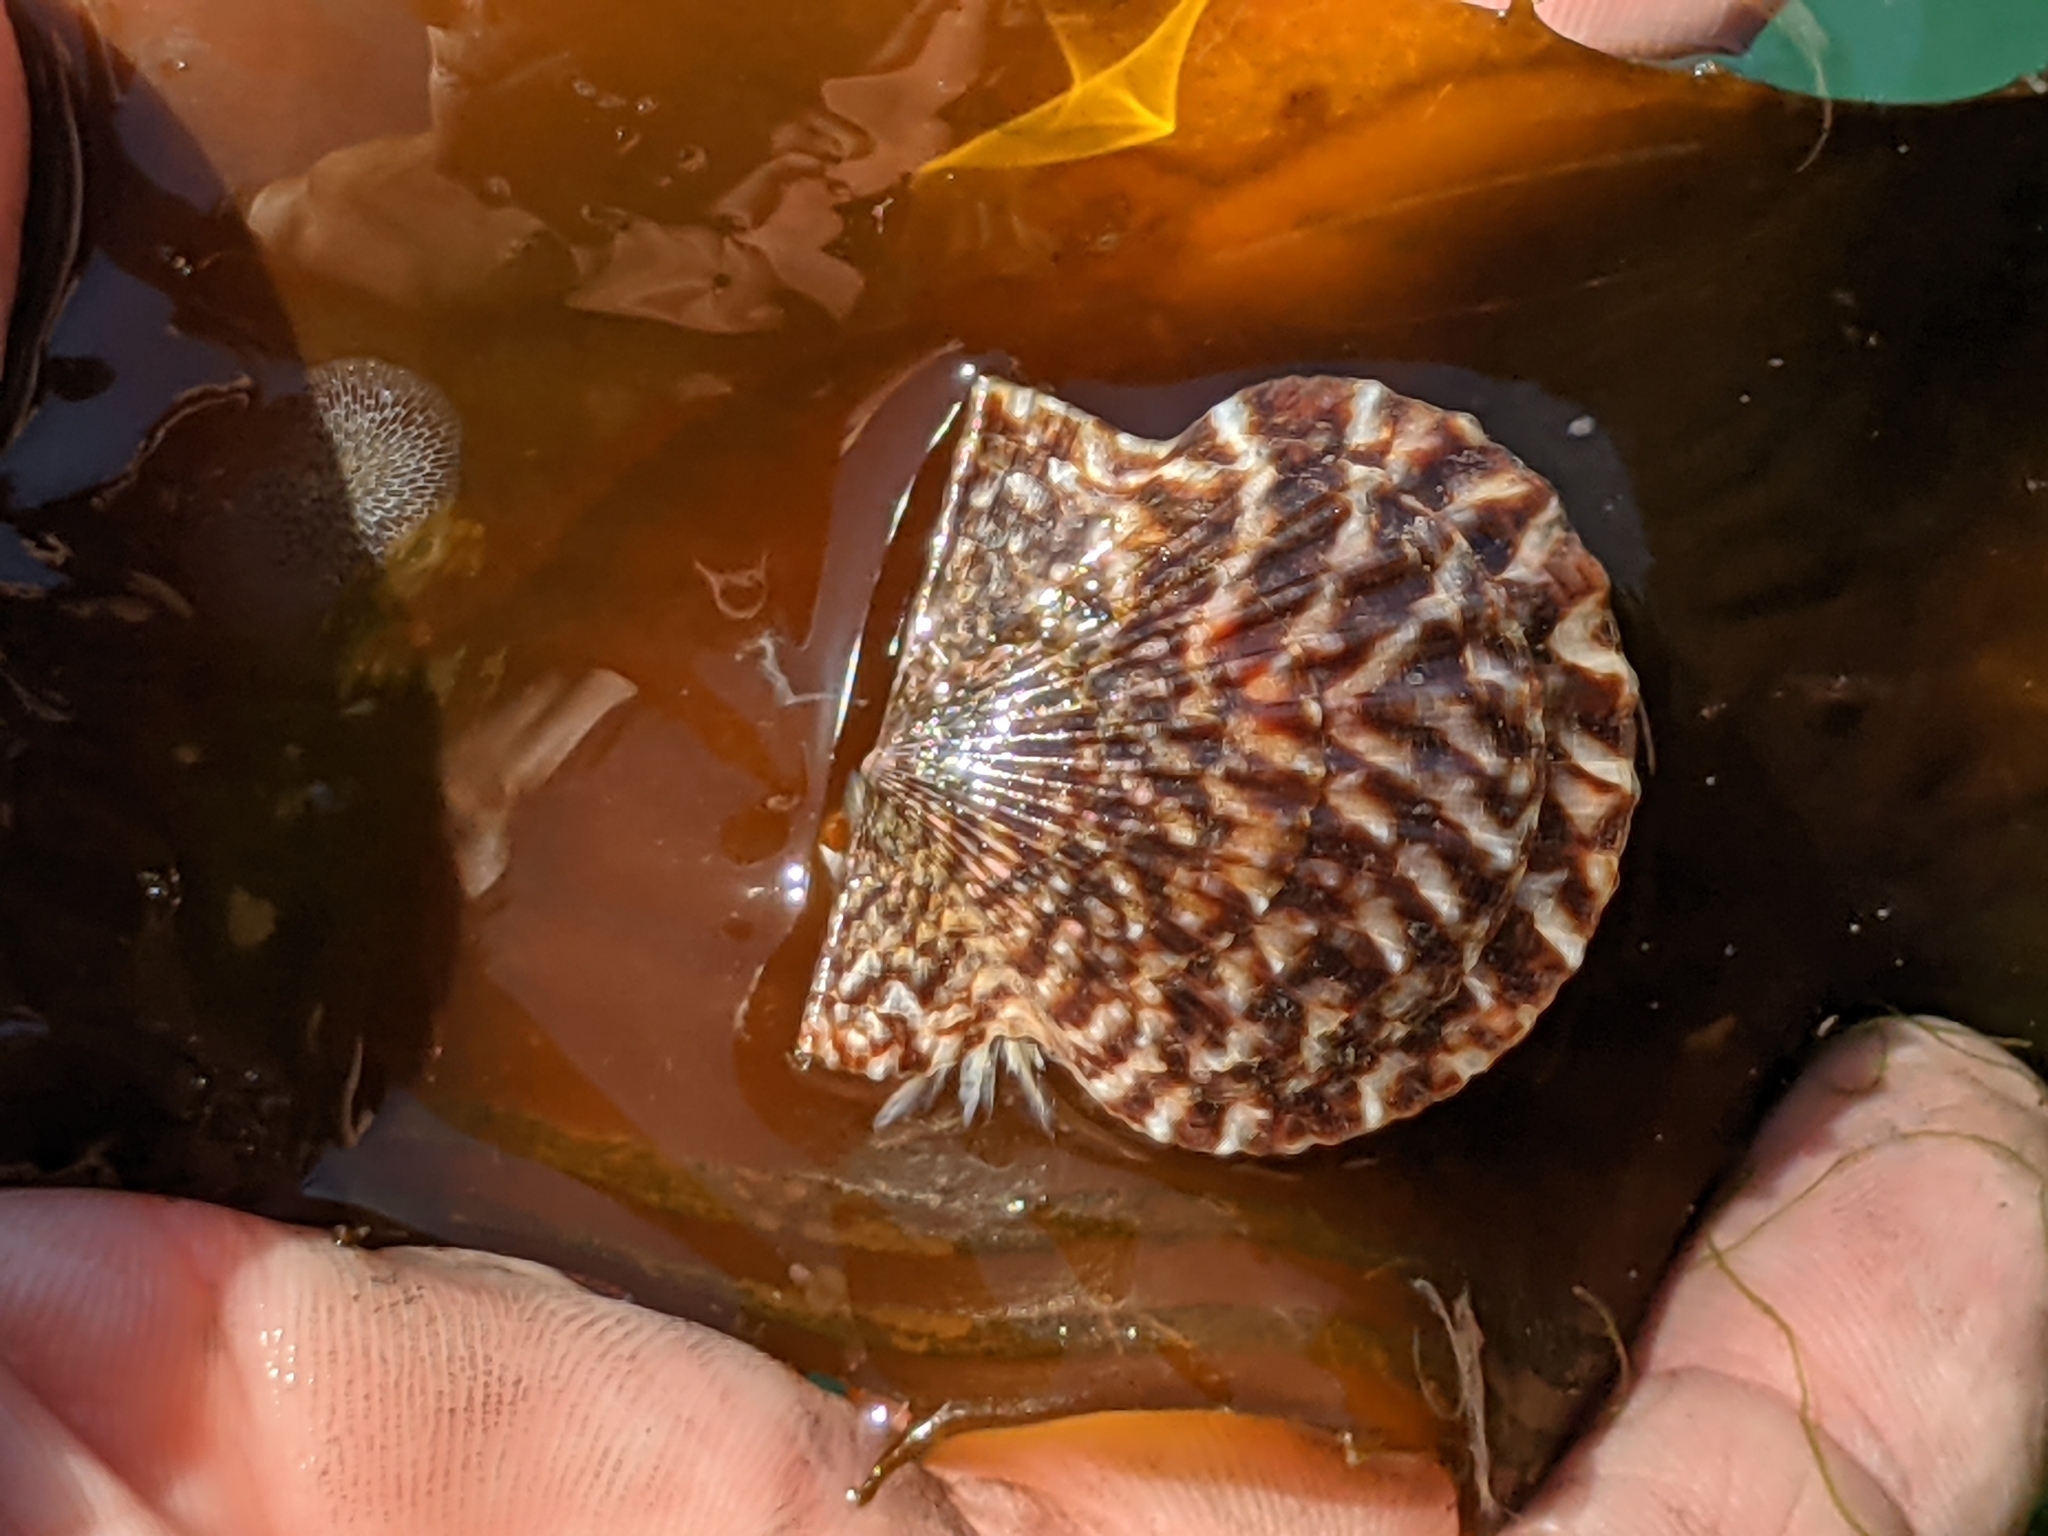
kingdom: Animalia
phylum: Mollusca
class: Bivalvia
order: Pectinida
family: Pectinidae
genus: Leptopecten
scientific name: Leptopecten latiauratus
